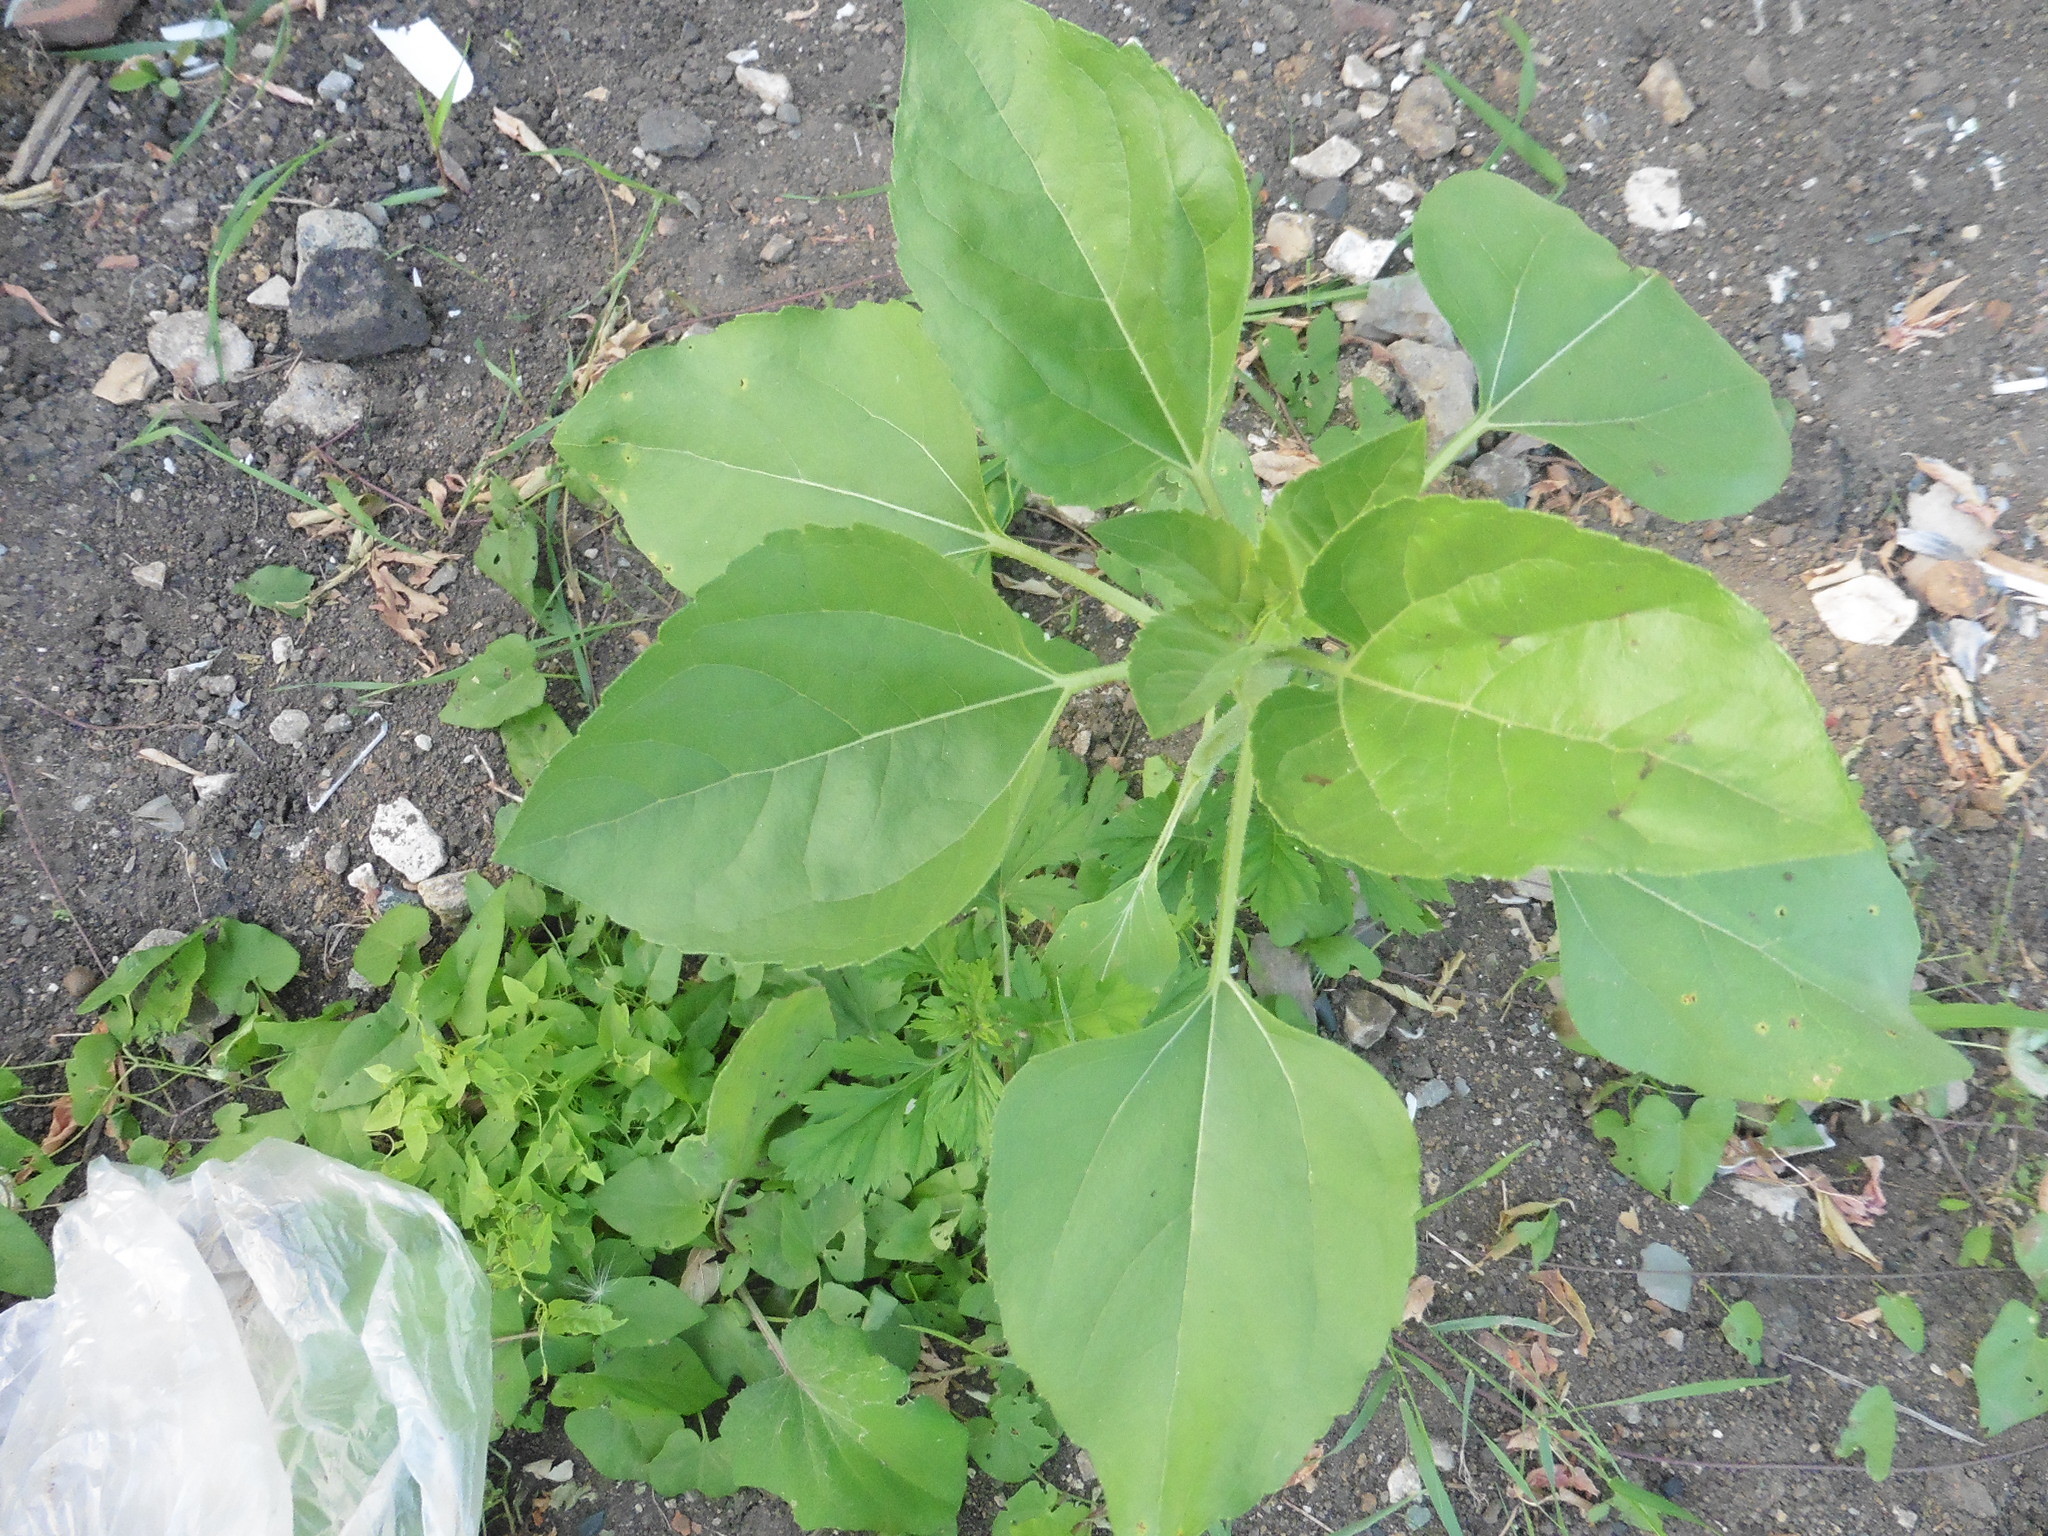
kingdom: Plantae
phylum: Tracheophyta
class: Magnoliopsida
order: Asterales
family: Asteraceae
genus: Helianthus
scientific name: Helianthus annuus
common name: Sunflower
